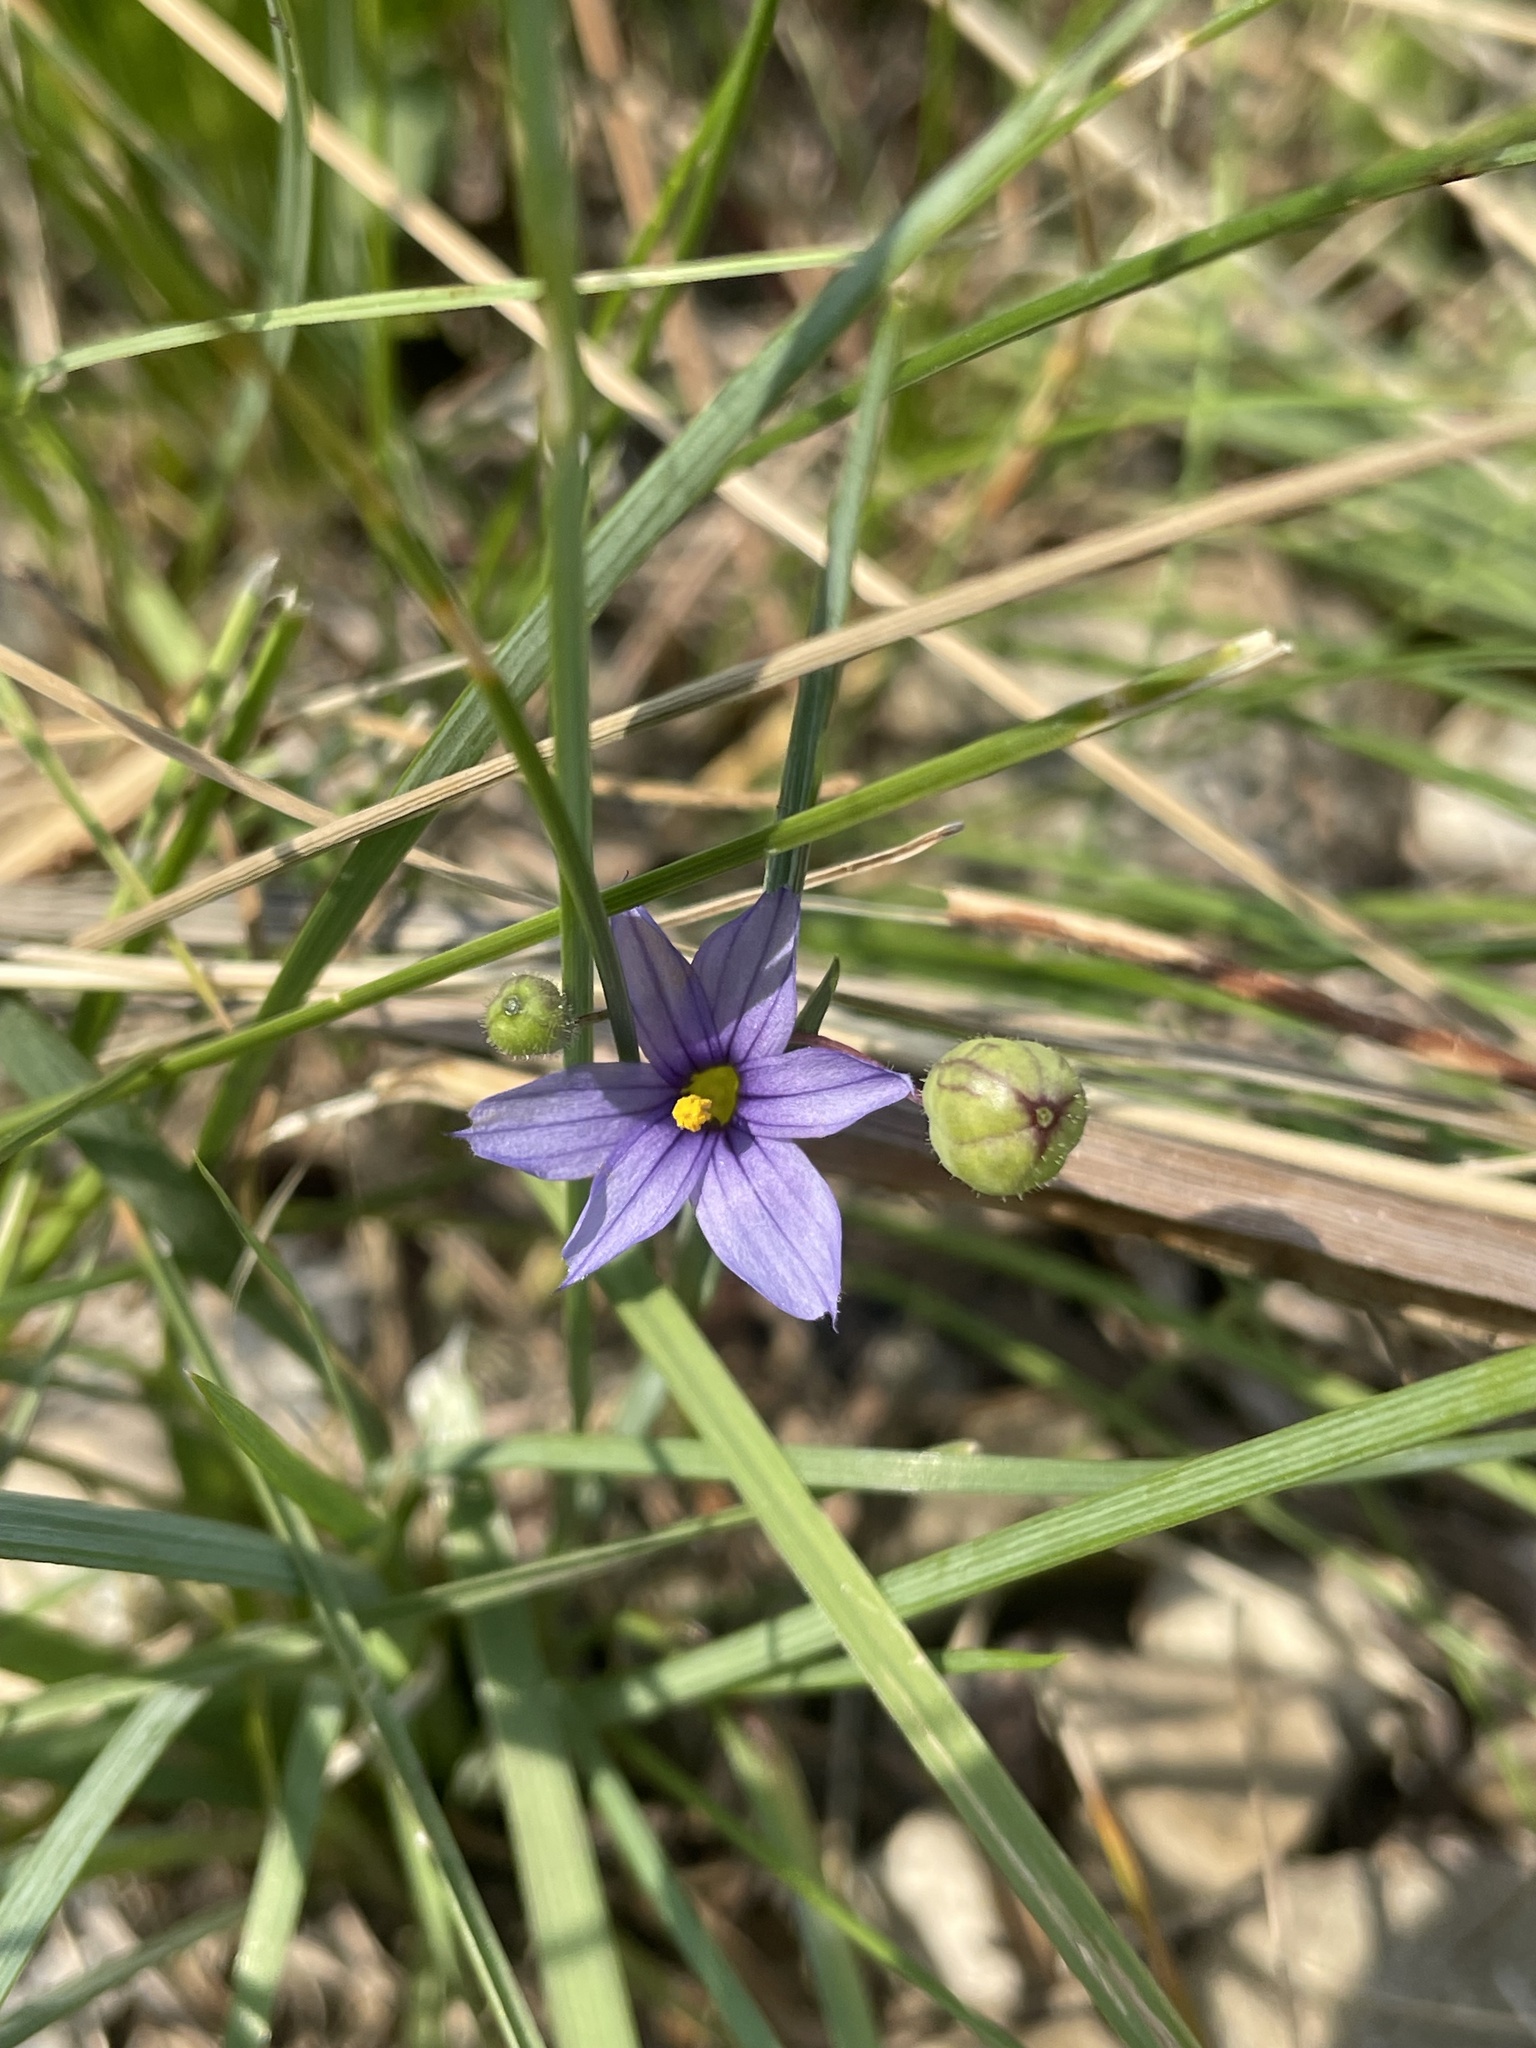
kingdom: Plantae
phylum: Tracheophyta
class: Liliopsida
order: Asparagales
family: Iridaceae
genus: Sisyrinchium
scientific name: Sisyrinchium montanum
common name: American blue-eyed-grass
